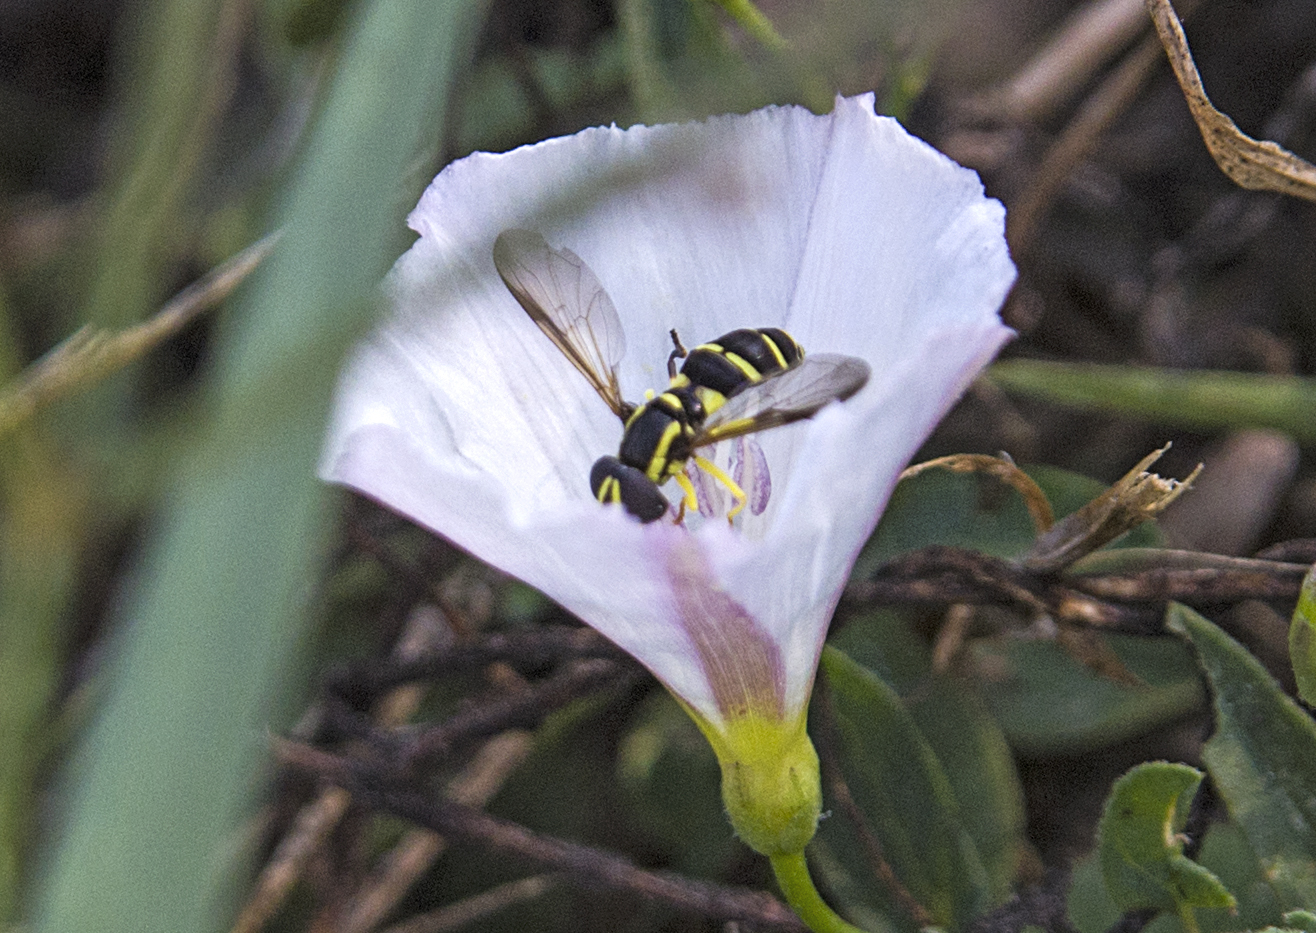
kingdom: Animalia
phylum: Arthropoda
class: Insecta
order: Diptera
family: Syrphidae
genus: Philhelius
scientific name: Philhelius dives
